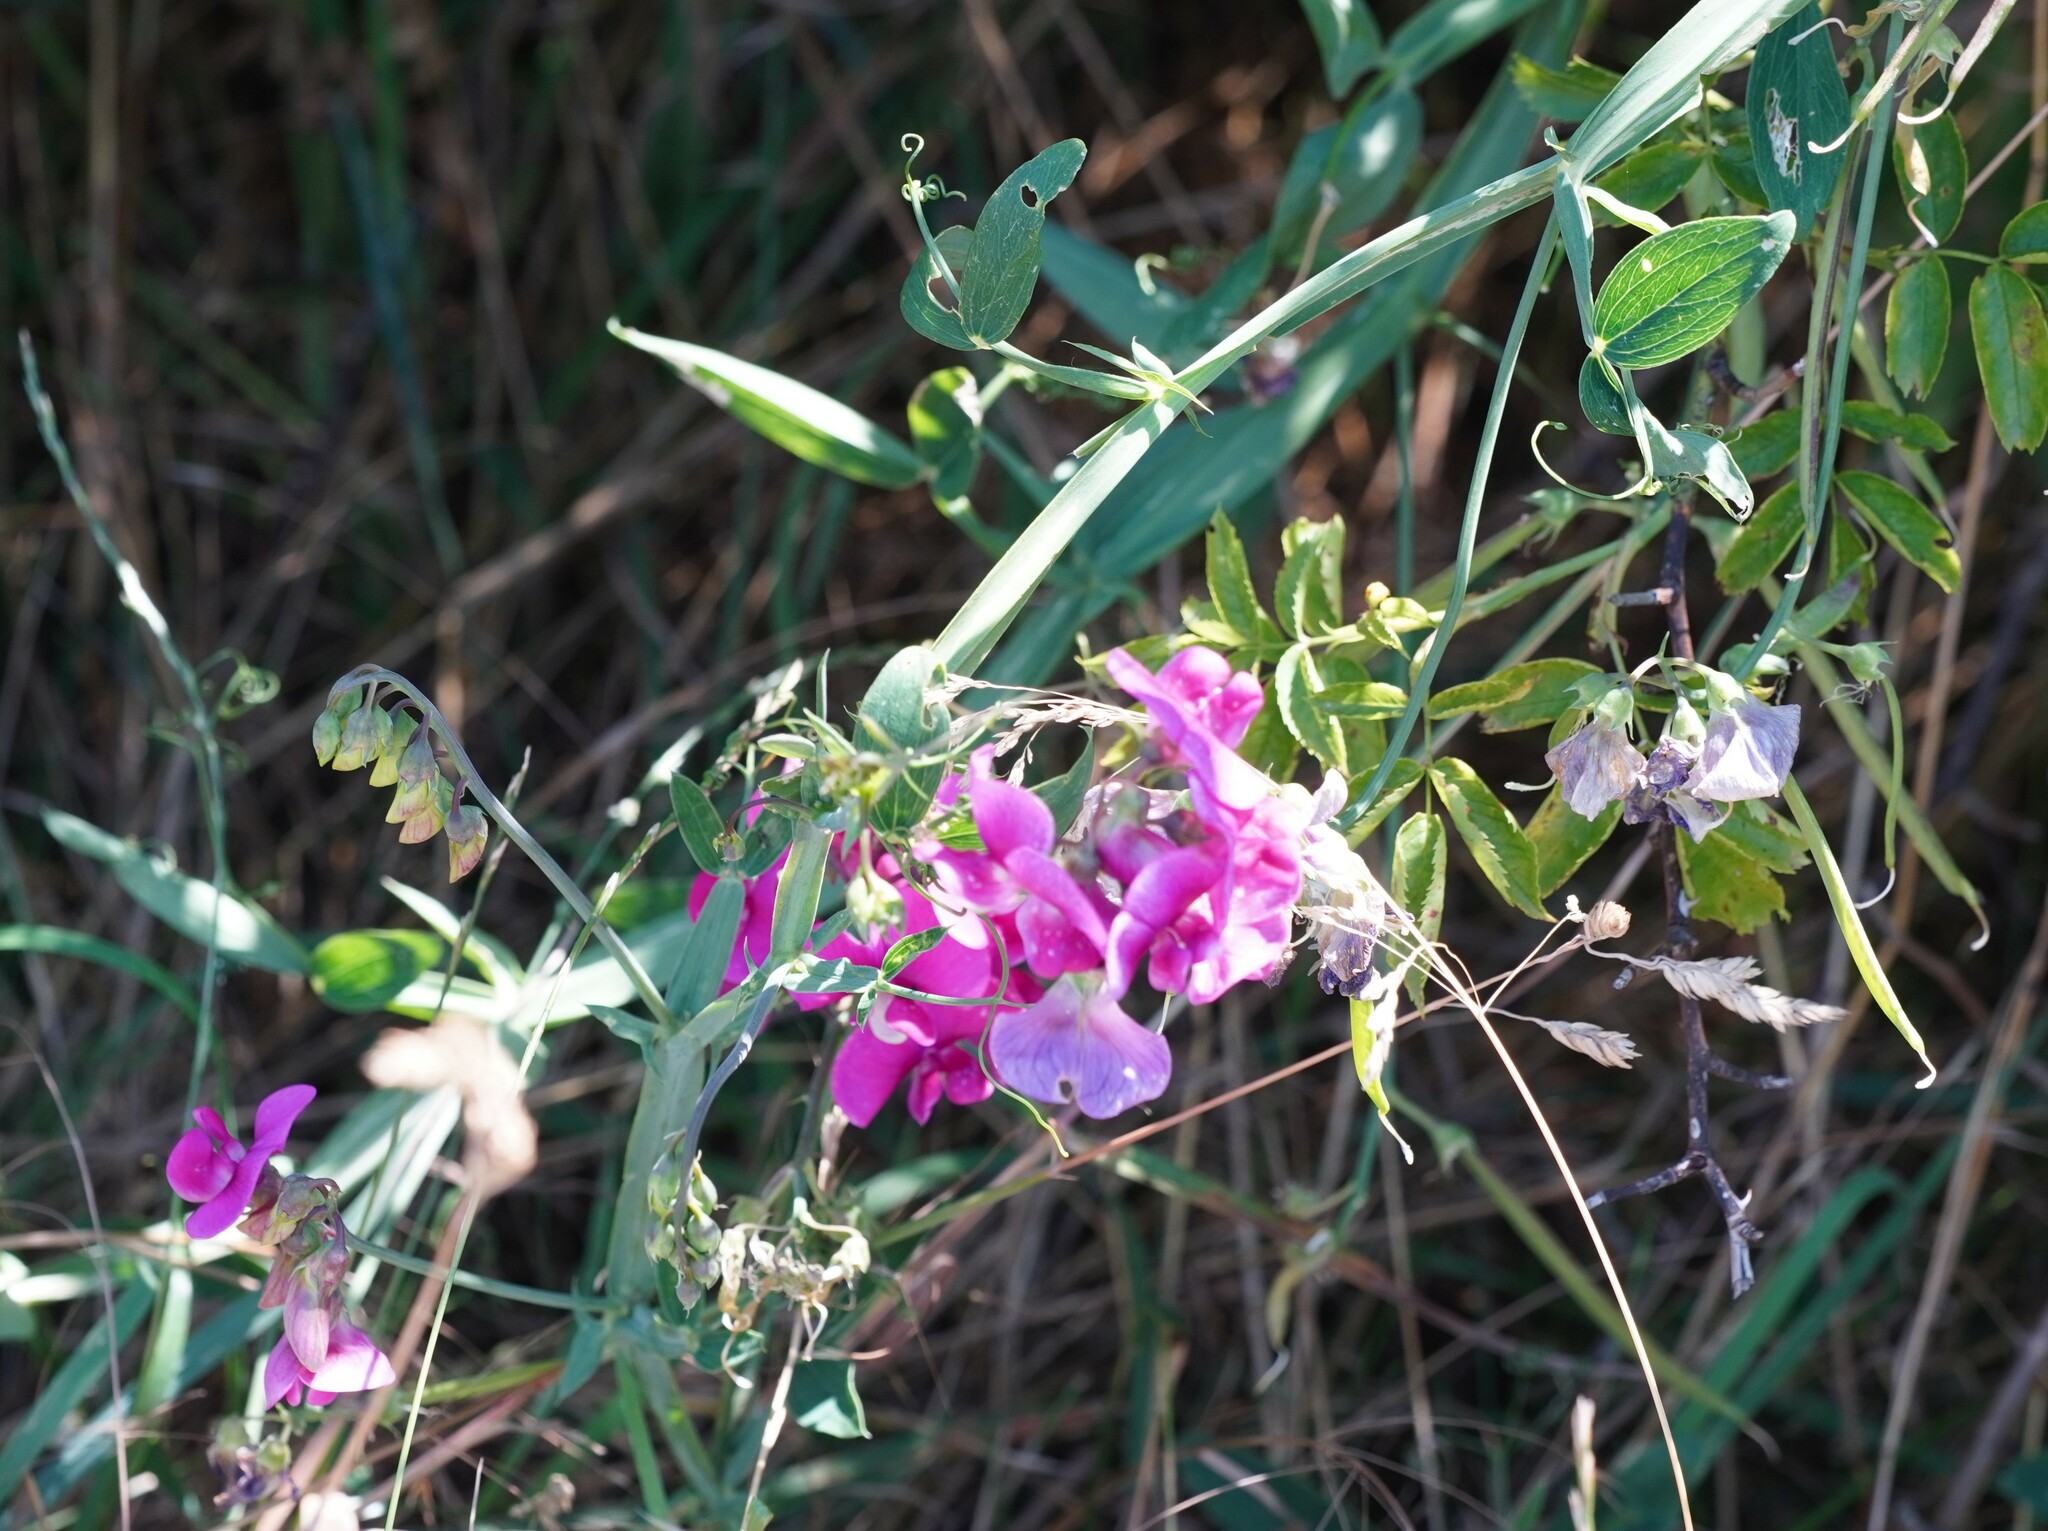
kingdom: Plantae
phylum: Tracheophyta
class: Magnoliopsida
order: Fabales
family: Fabaceae
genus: Lathyrus
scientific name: Lathyrus latifolius
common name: Perennial pea
